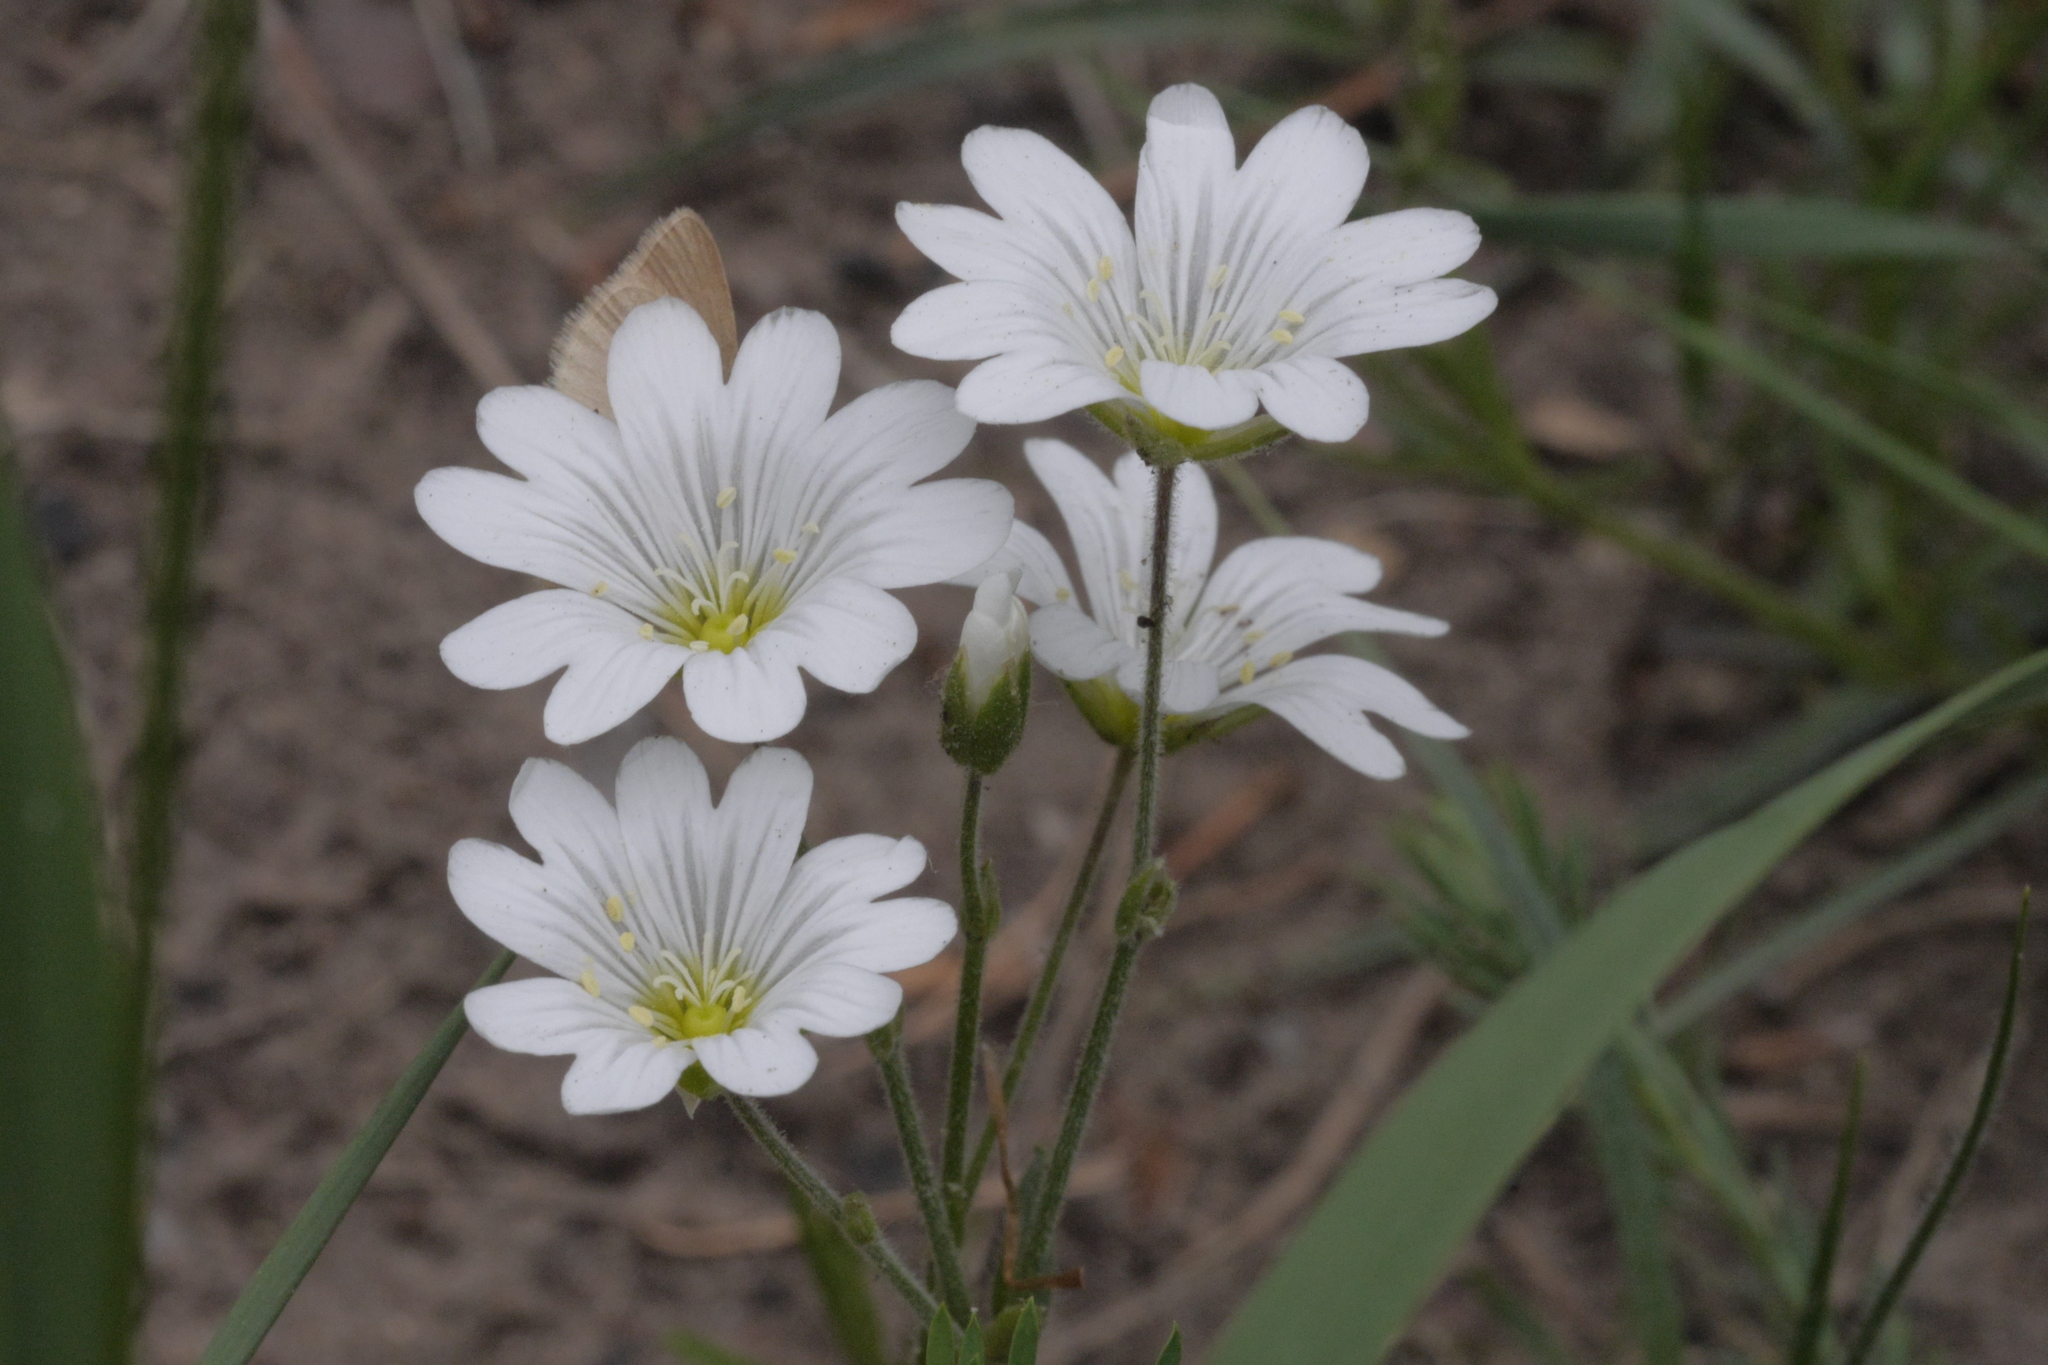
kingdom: Plantae
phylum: Tracheophyta
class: Magnoliopsida
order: Caryophyllales
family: Caryophyllaceae
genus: Cerastium
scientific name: Cerastium arvense
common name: Field mouse-ear
